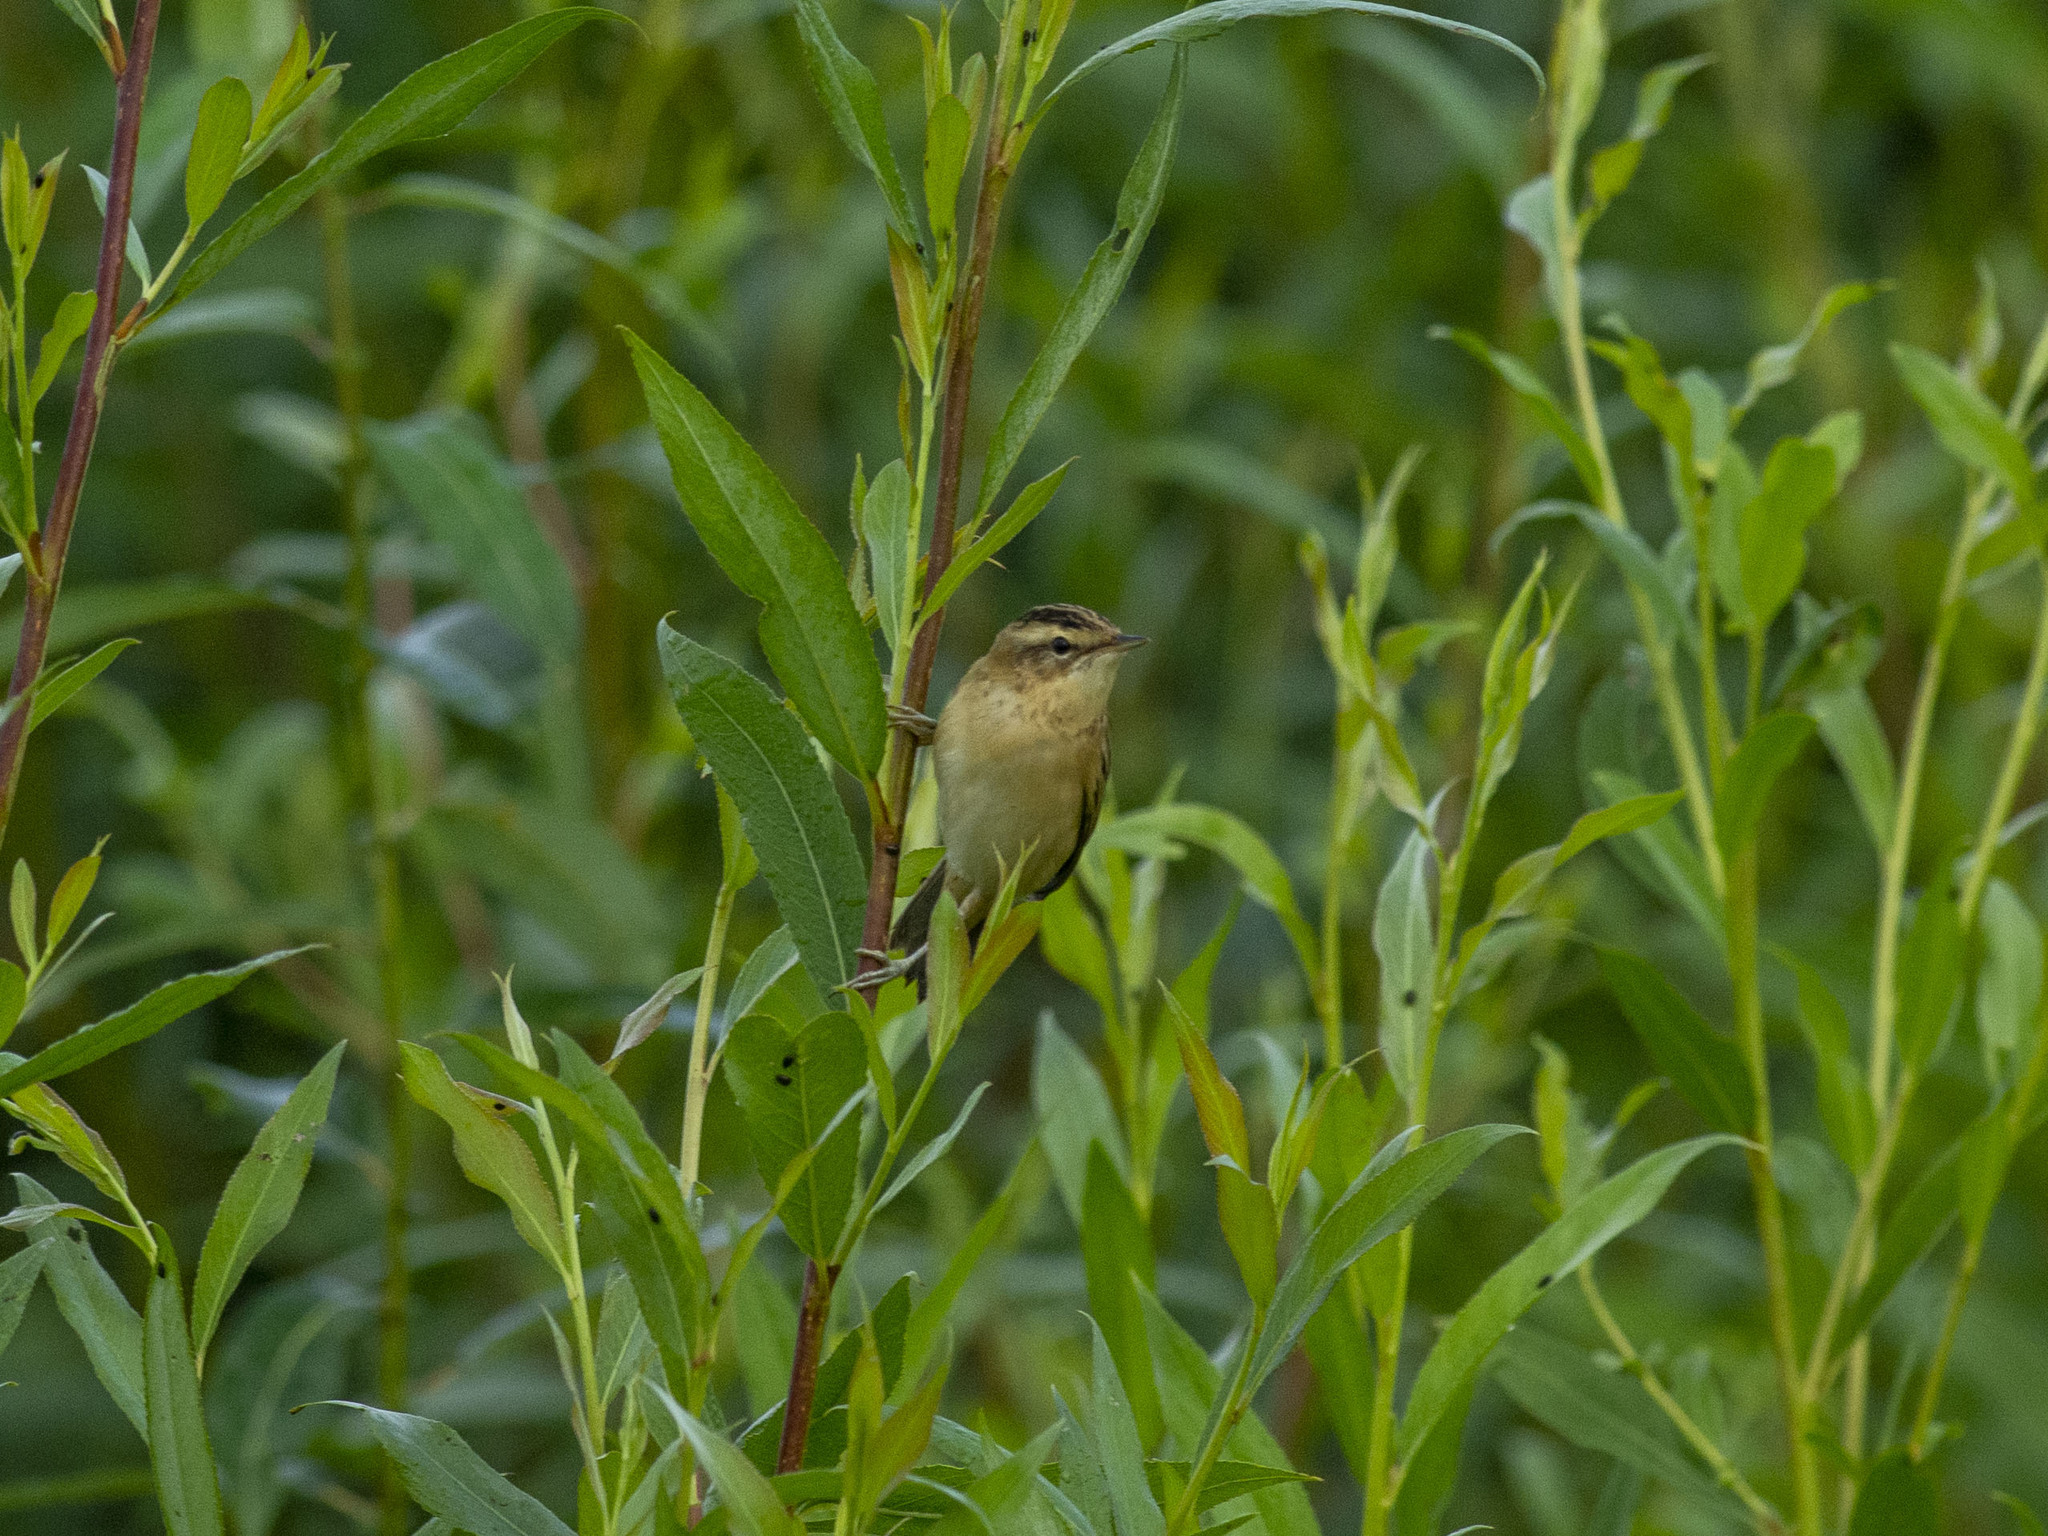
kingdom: Animalia
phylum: Chordata
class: Aves
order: Passeriformes
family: Acrocephalidae
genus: Acrocephalus
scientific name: Acrocephalus schoenobaenus
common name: Sedge warbler
